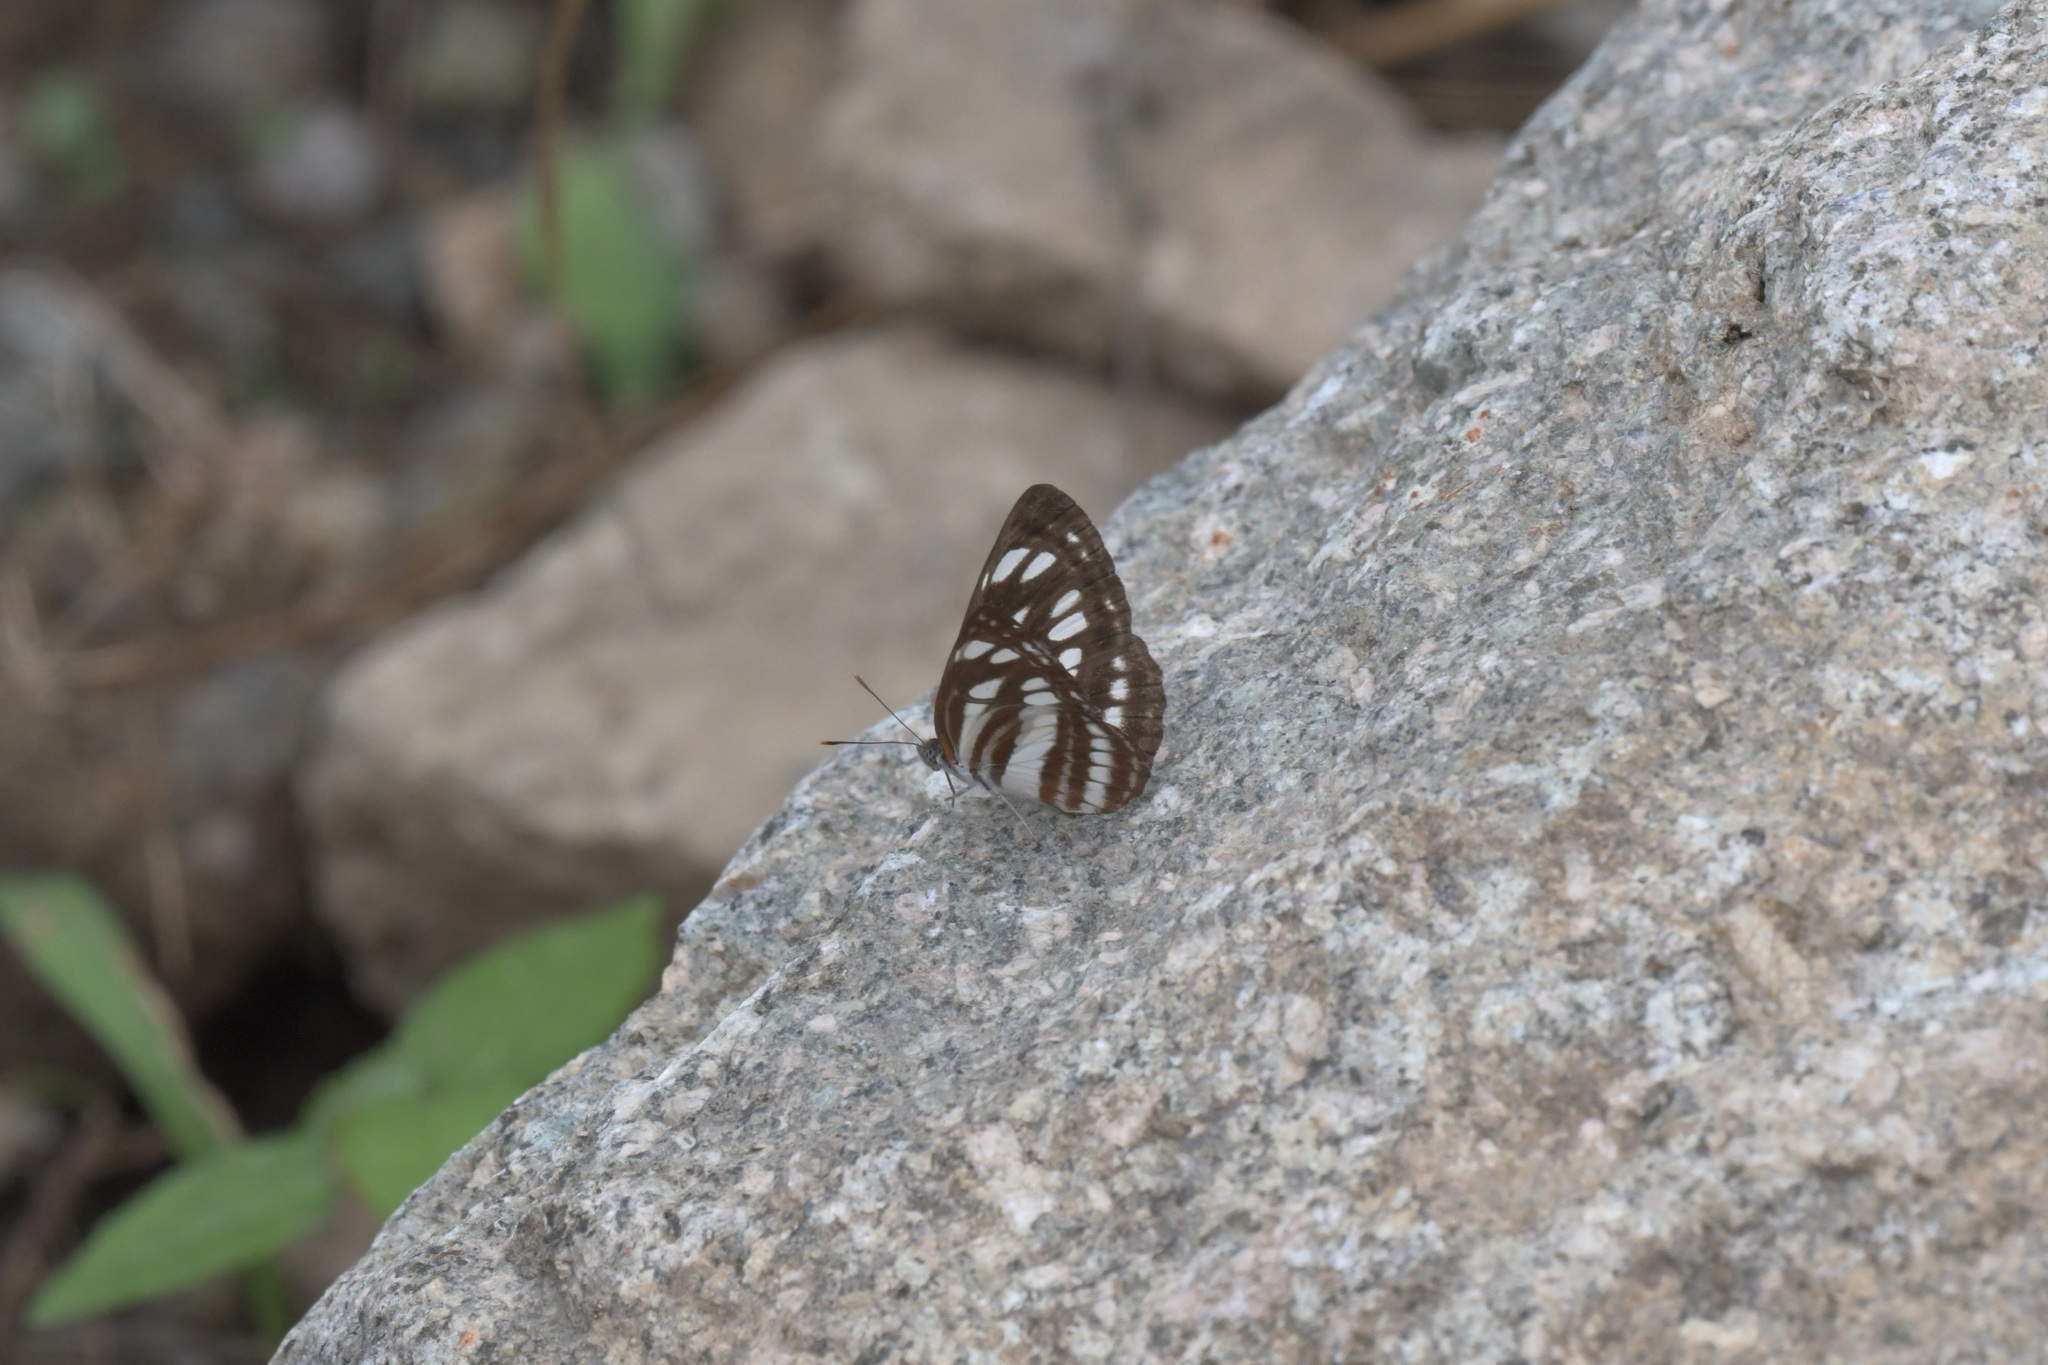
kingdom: Animalia
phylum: Arthropoda
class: Insecta
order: Lepidoptera
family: Nymphalidae
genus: Neptis
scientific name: Neptis sappho
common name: Common glider
